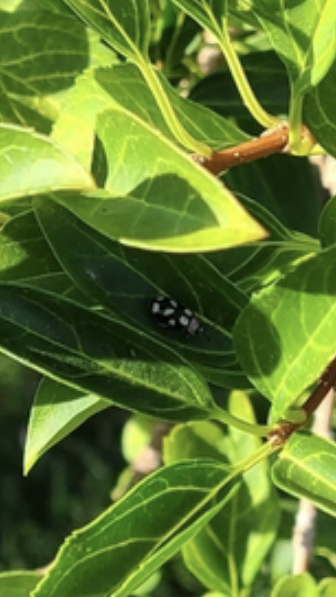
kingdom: Animalia
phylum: Arthropoda
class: Insecta
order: Coleoptera
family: Chrysomelidae
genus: Omophoita
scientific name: Omophoita cyanipennis
